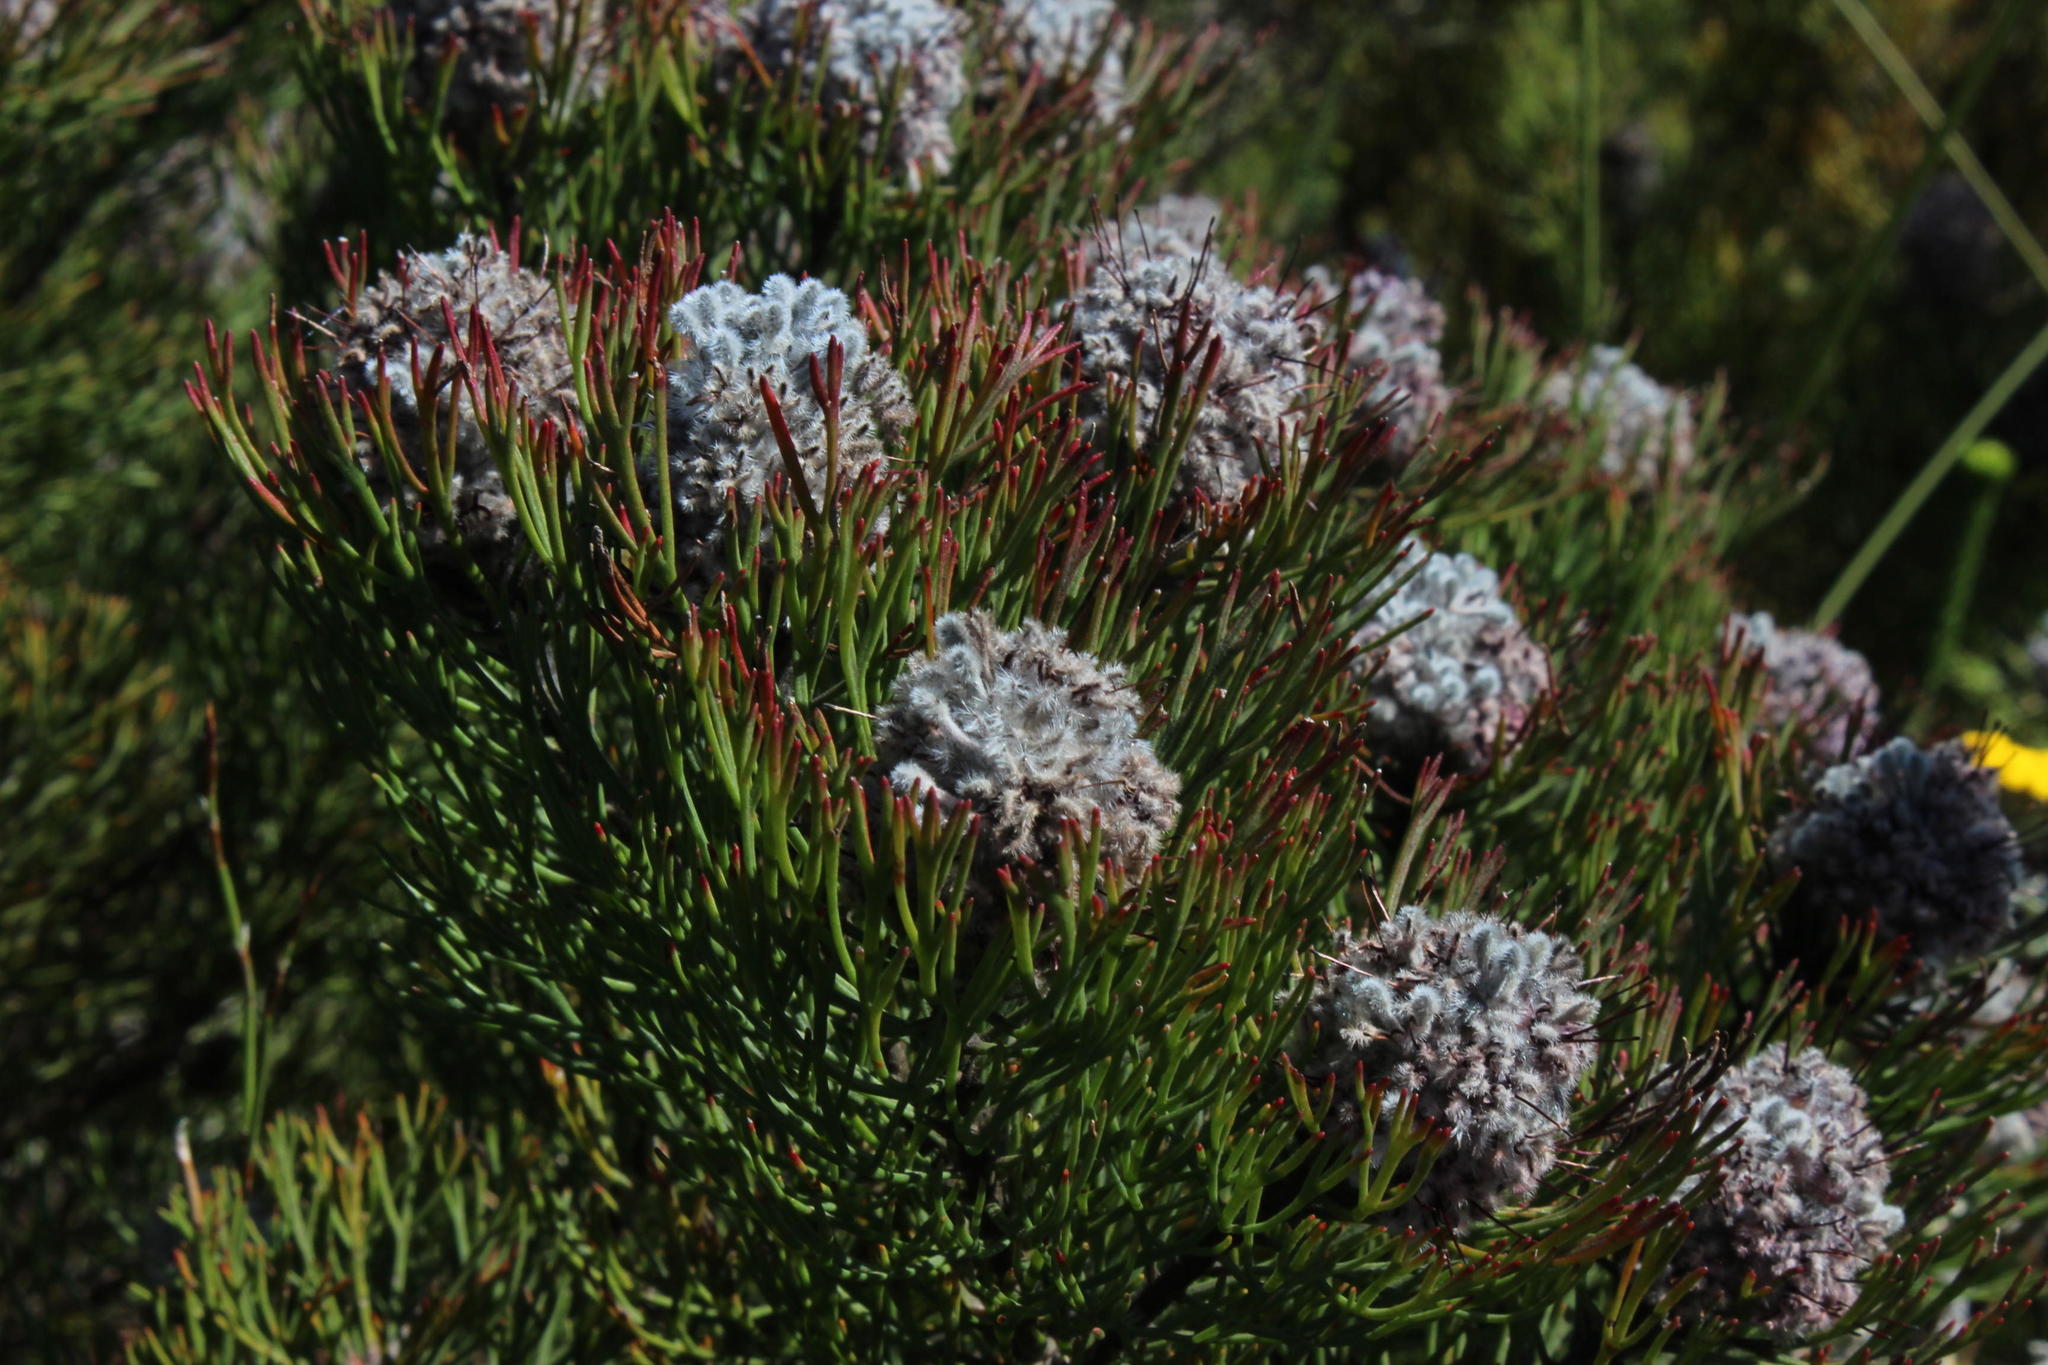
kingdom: Plantae
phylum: Tracheophyta
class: Magnoliopsida
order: Proteales
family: Proteaceae
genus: Paranomus
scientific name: Paranomus
